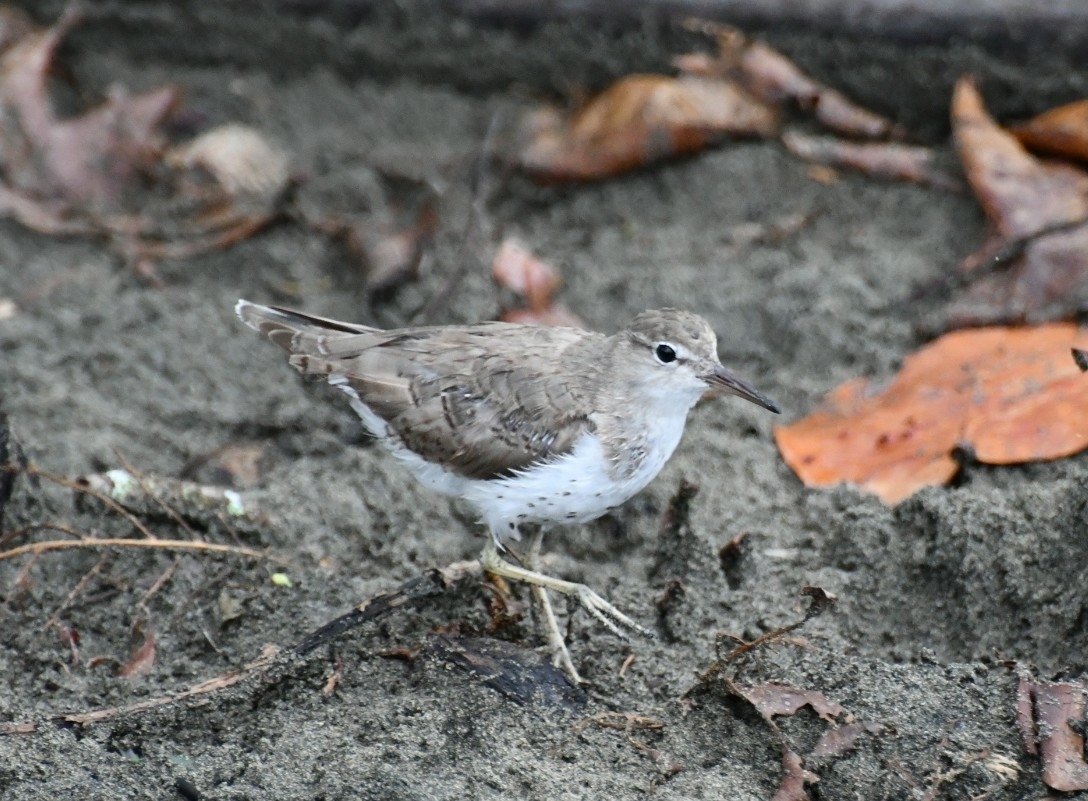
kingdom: Animalia
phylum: Chordata
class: Aves
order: Charadriiformes
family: Scolopacidae
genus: Actitis
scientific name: Actitis macularius
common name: Spotted sandpiper
